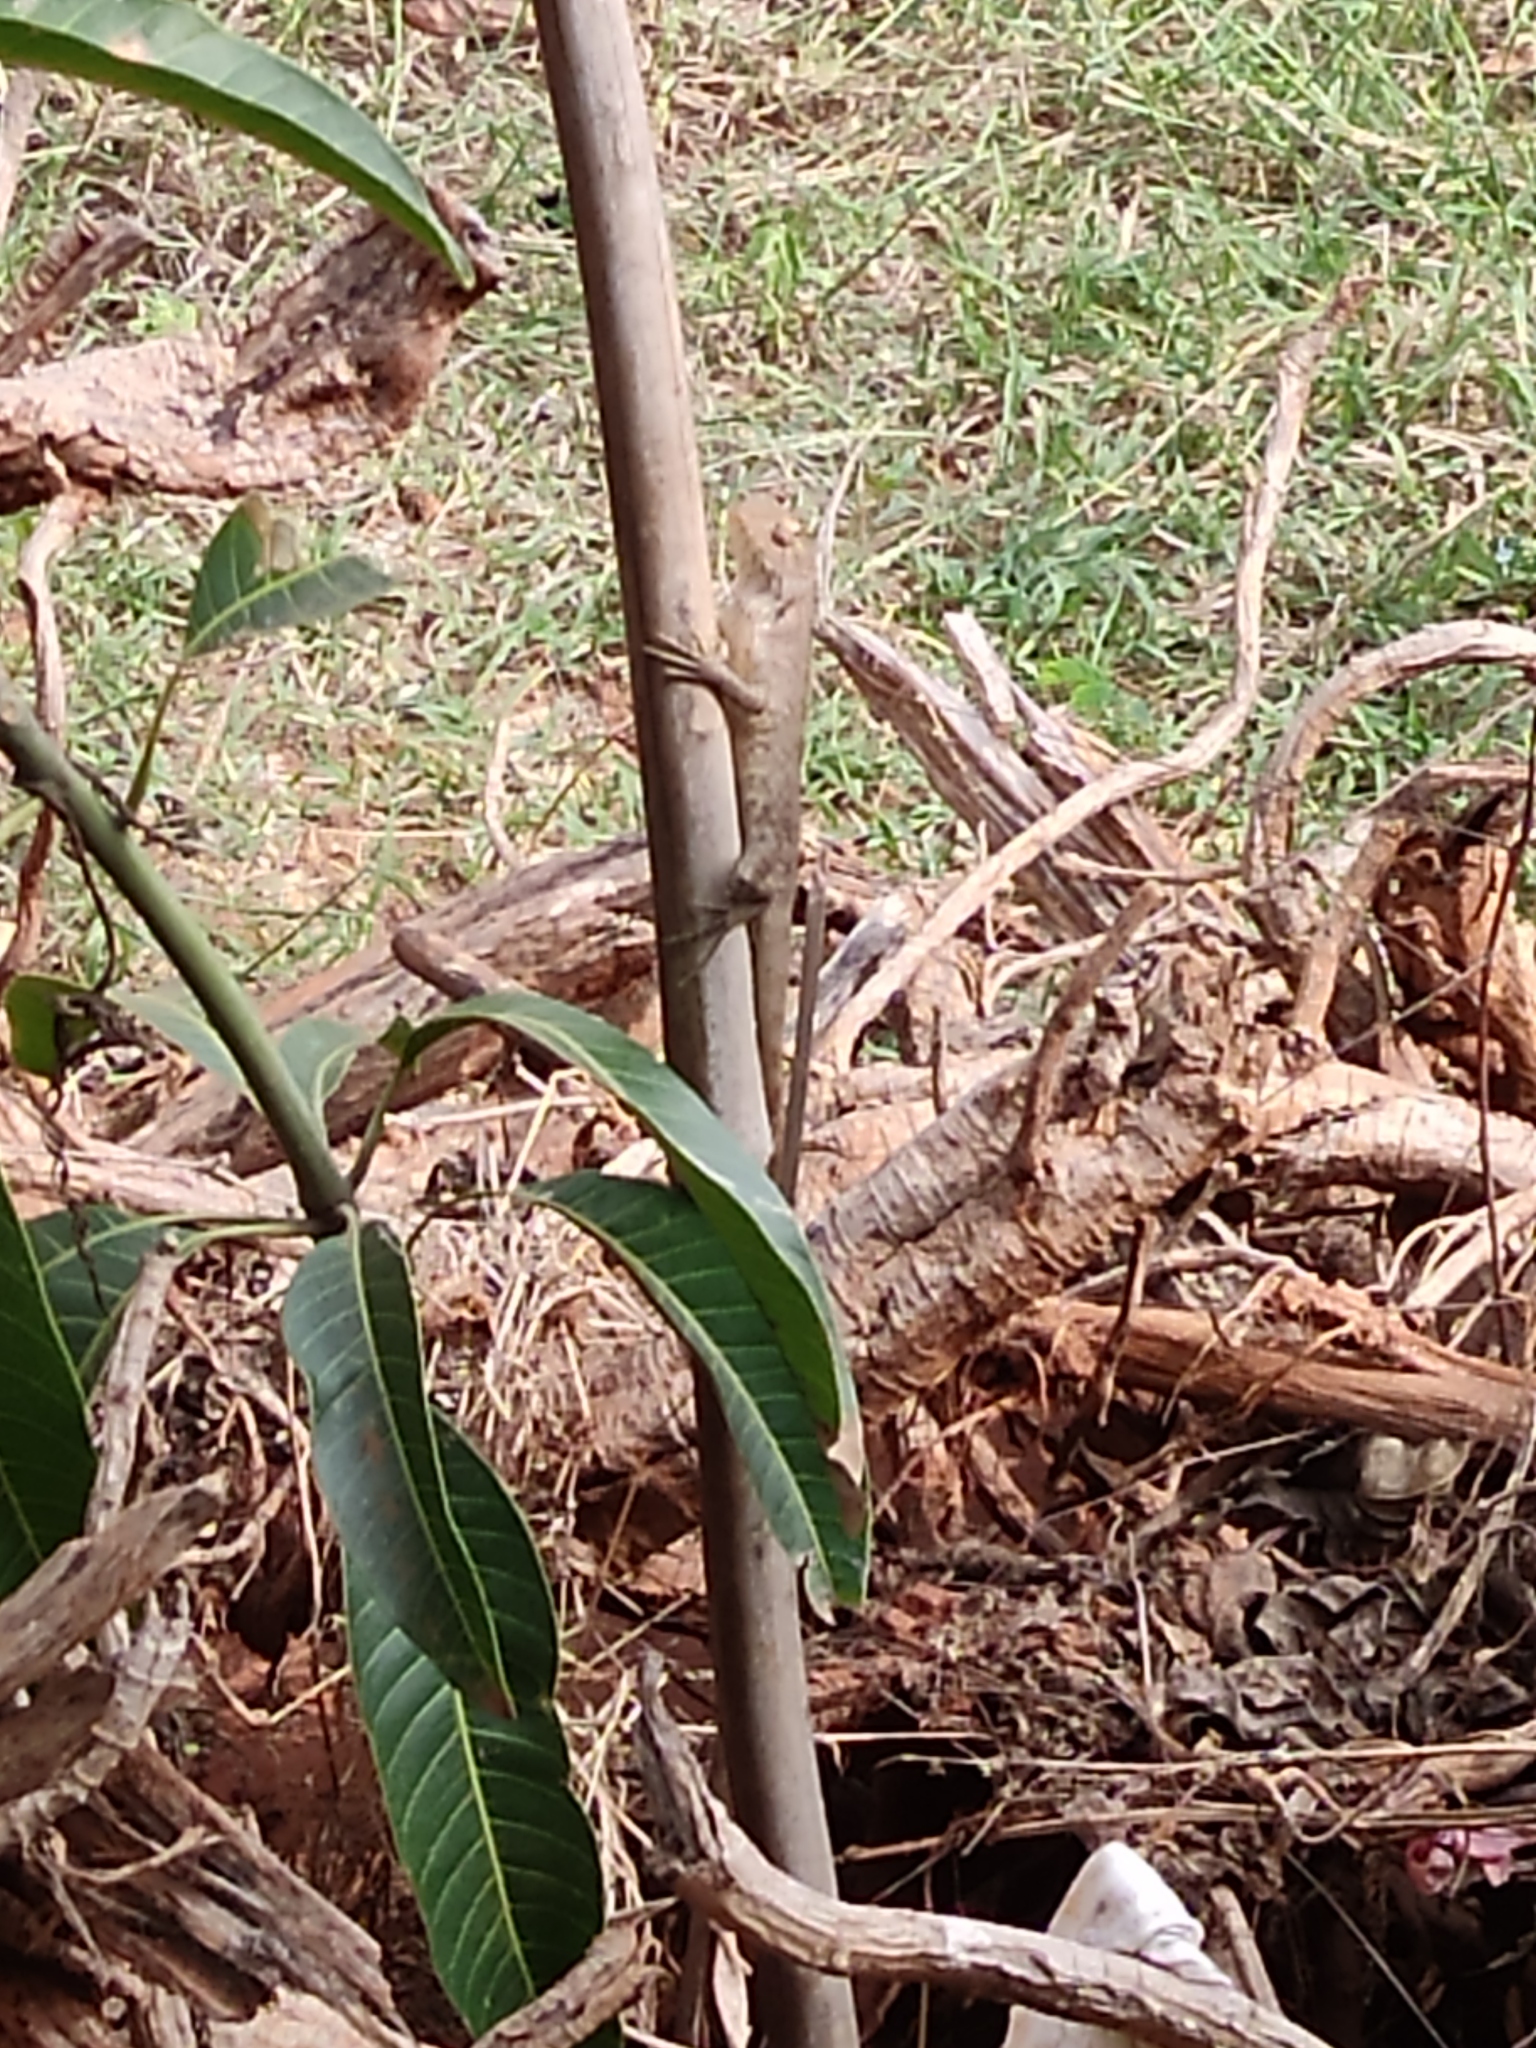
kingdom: Animalia
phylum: Chordata
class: Squamata
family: Agamidae
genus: Calotes
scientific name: Calotes versicolor
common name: Oriental garden lizard
